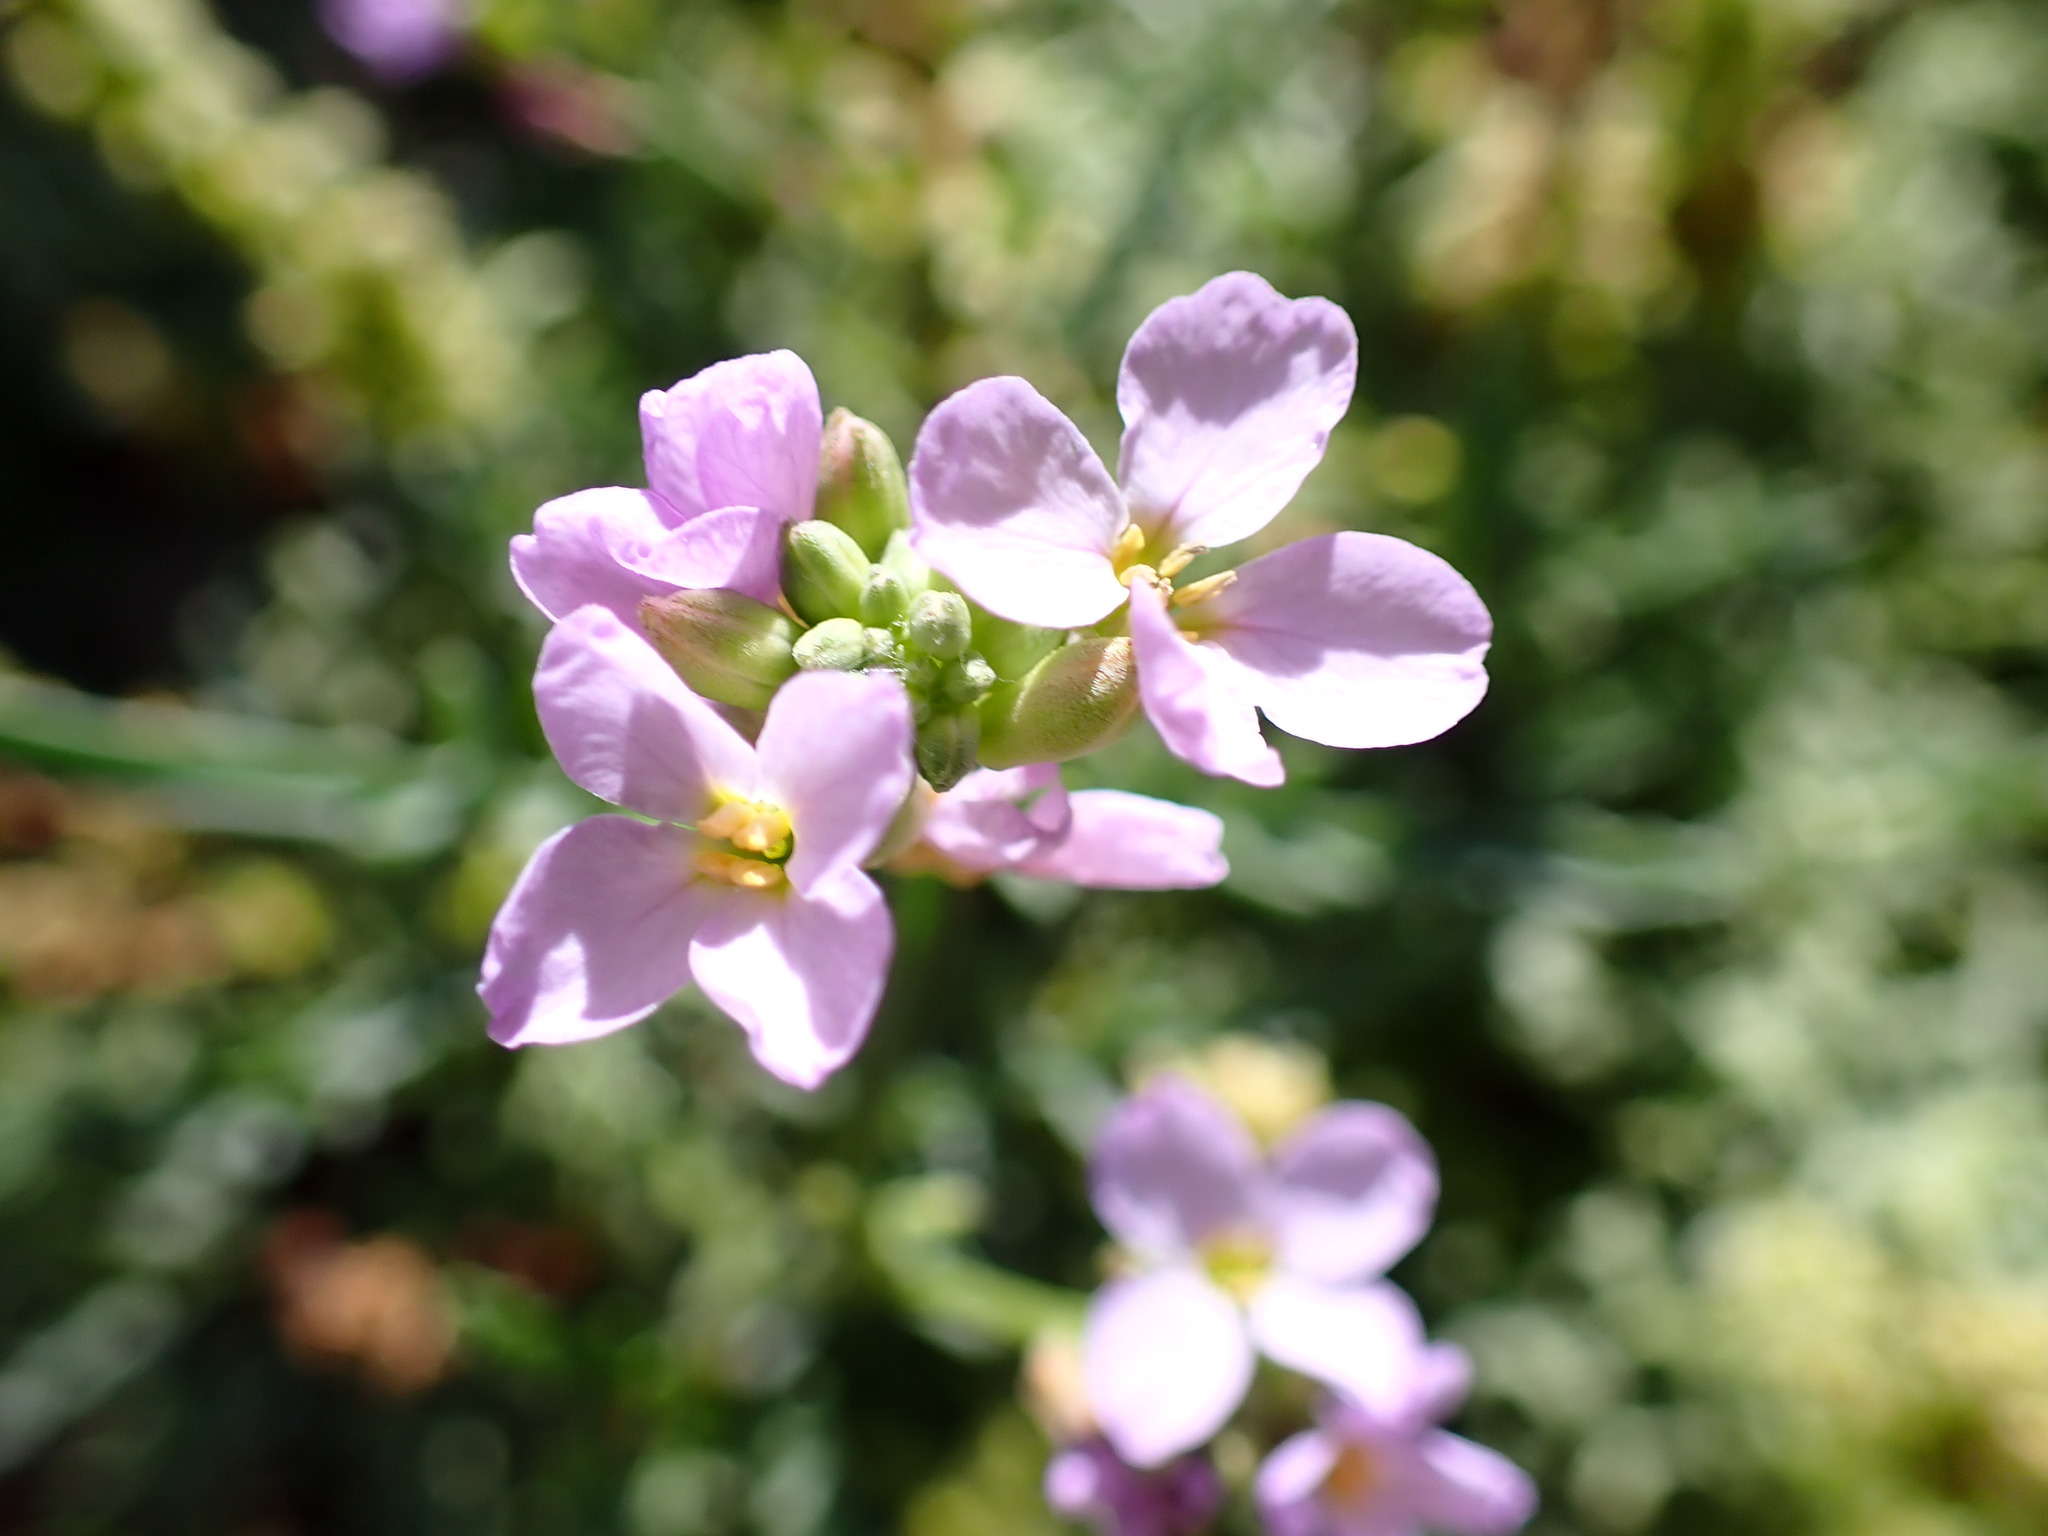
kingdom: Plantae
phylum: Tracheophyta
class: Magnoliopsida
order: Brassicales
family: Brassicaceae
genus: Cakile
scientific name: Cakile maritima
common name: Sea rocket
